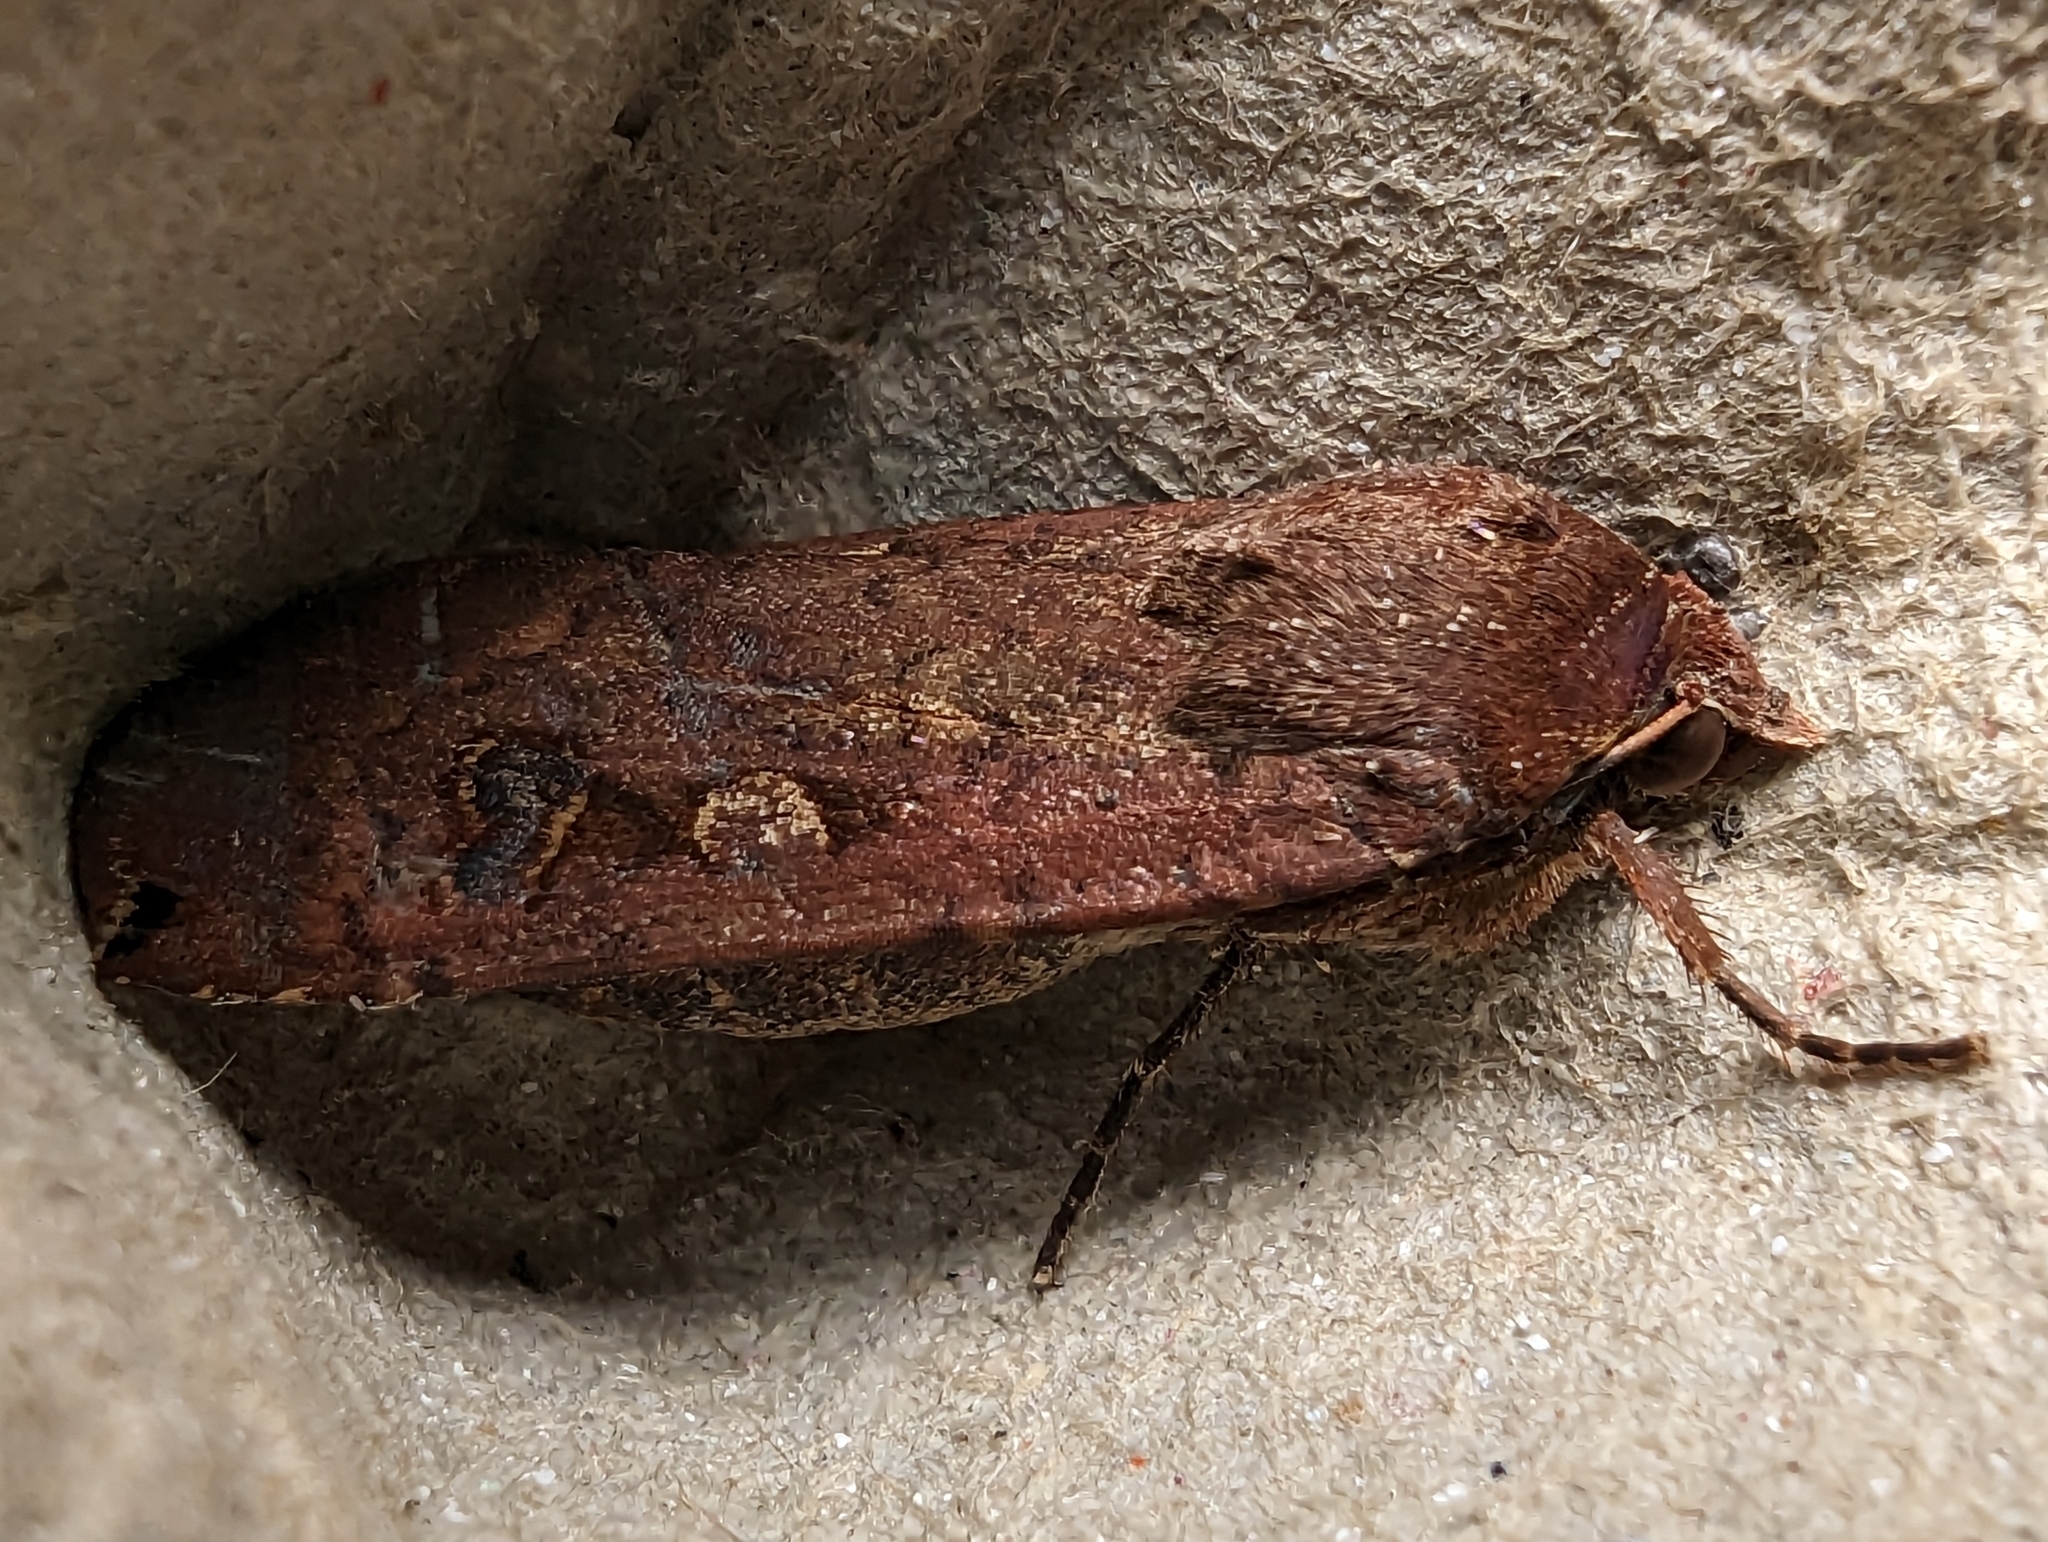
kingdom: Animalia
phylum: Arthropoda
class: Insecta
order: Lepidoptera
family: Noctuidae
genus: Noctua
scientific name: Noctua pronuba
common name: Large yellow underwing
